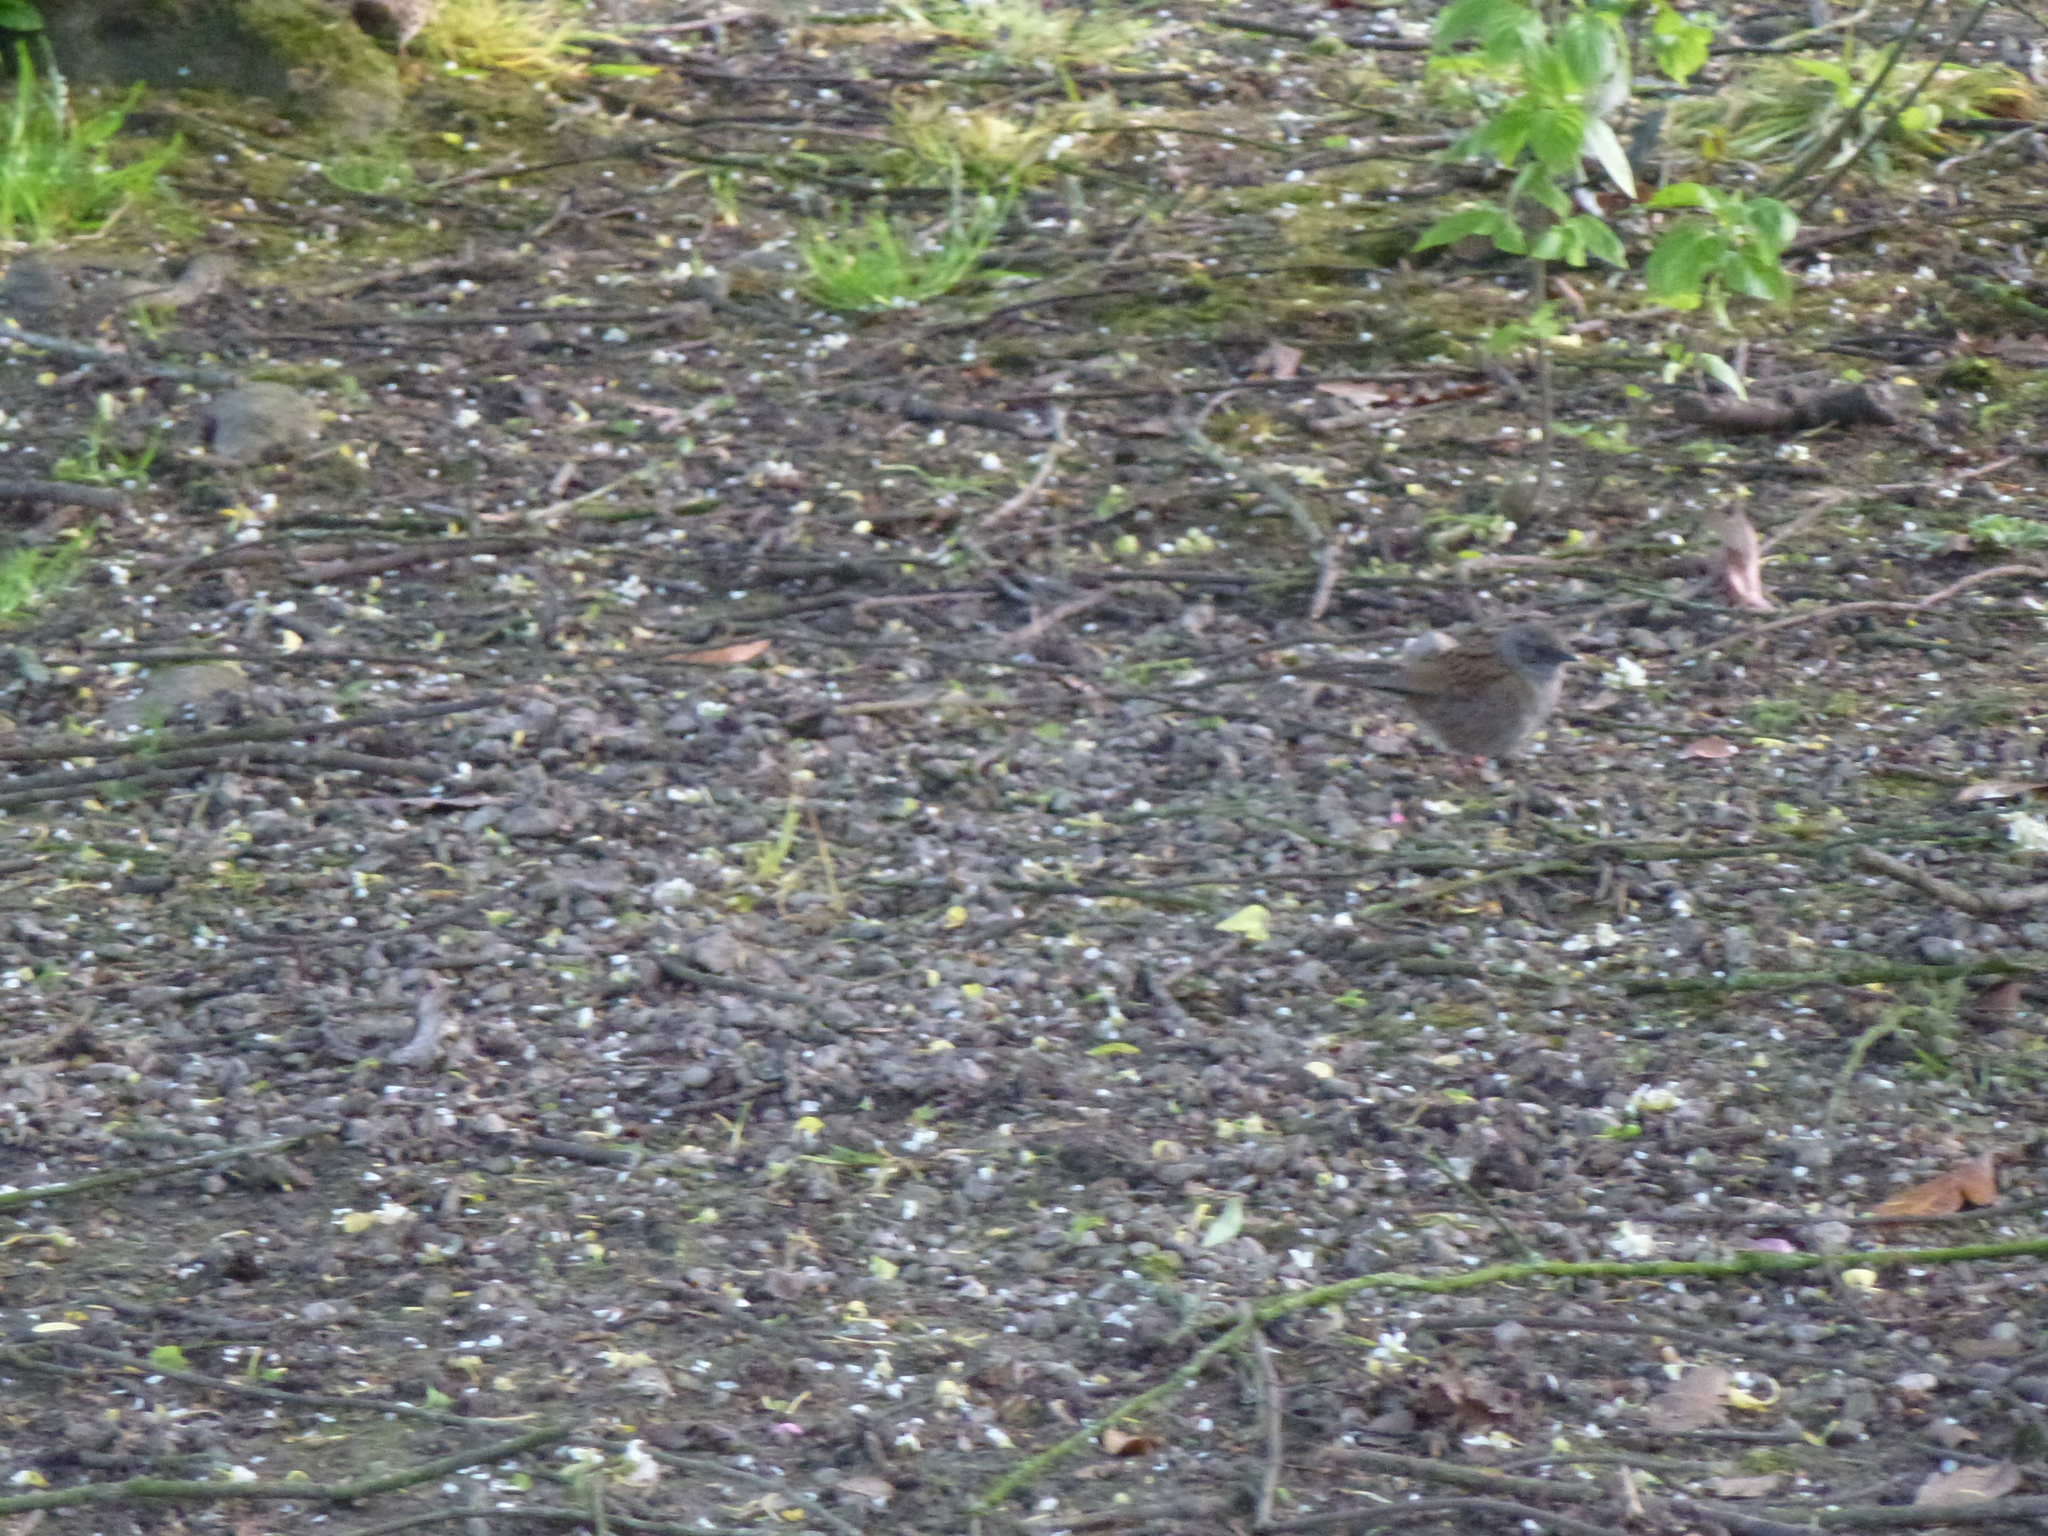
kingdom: Animalia
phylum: Chordata
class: Aves
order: Passeriformes
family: Prunellidae
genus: Prunella
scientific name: Prunella modularis
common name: Dunnock
